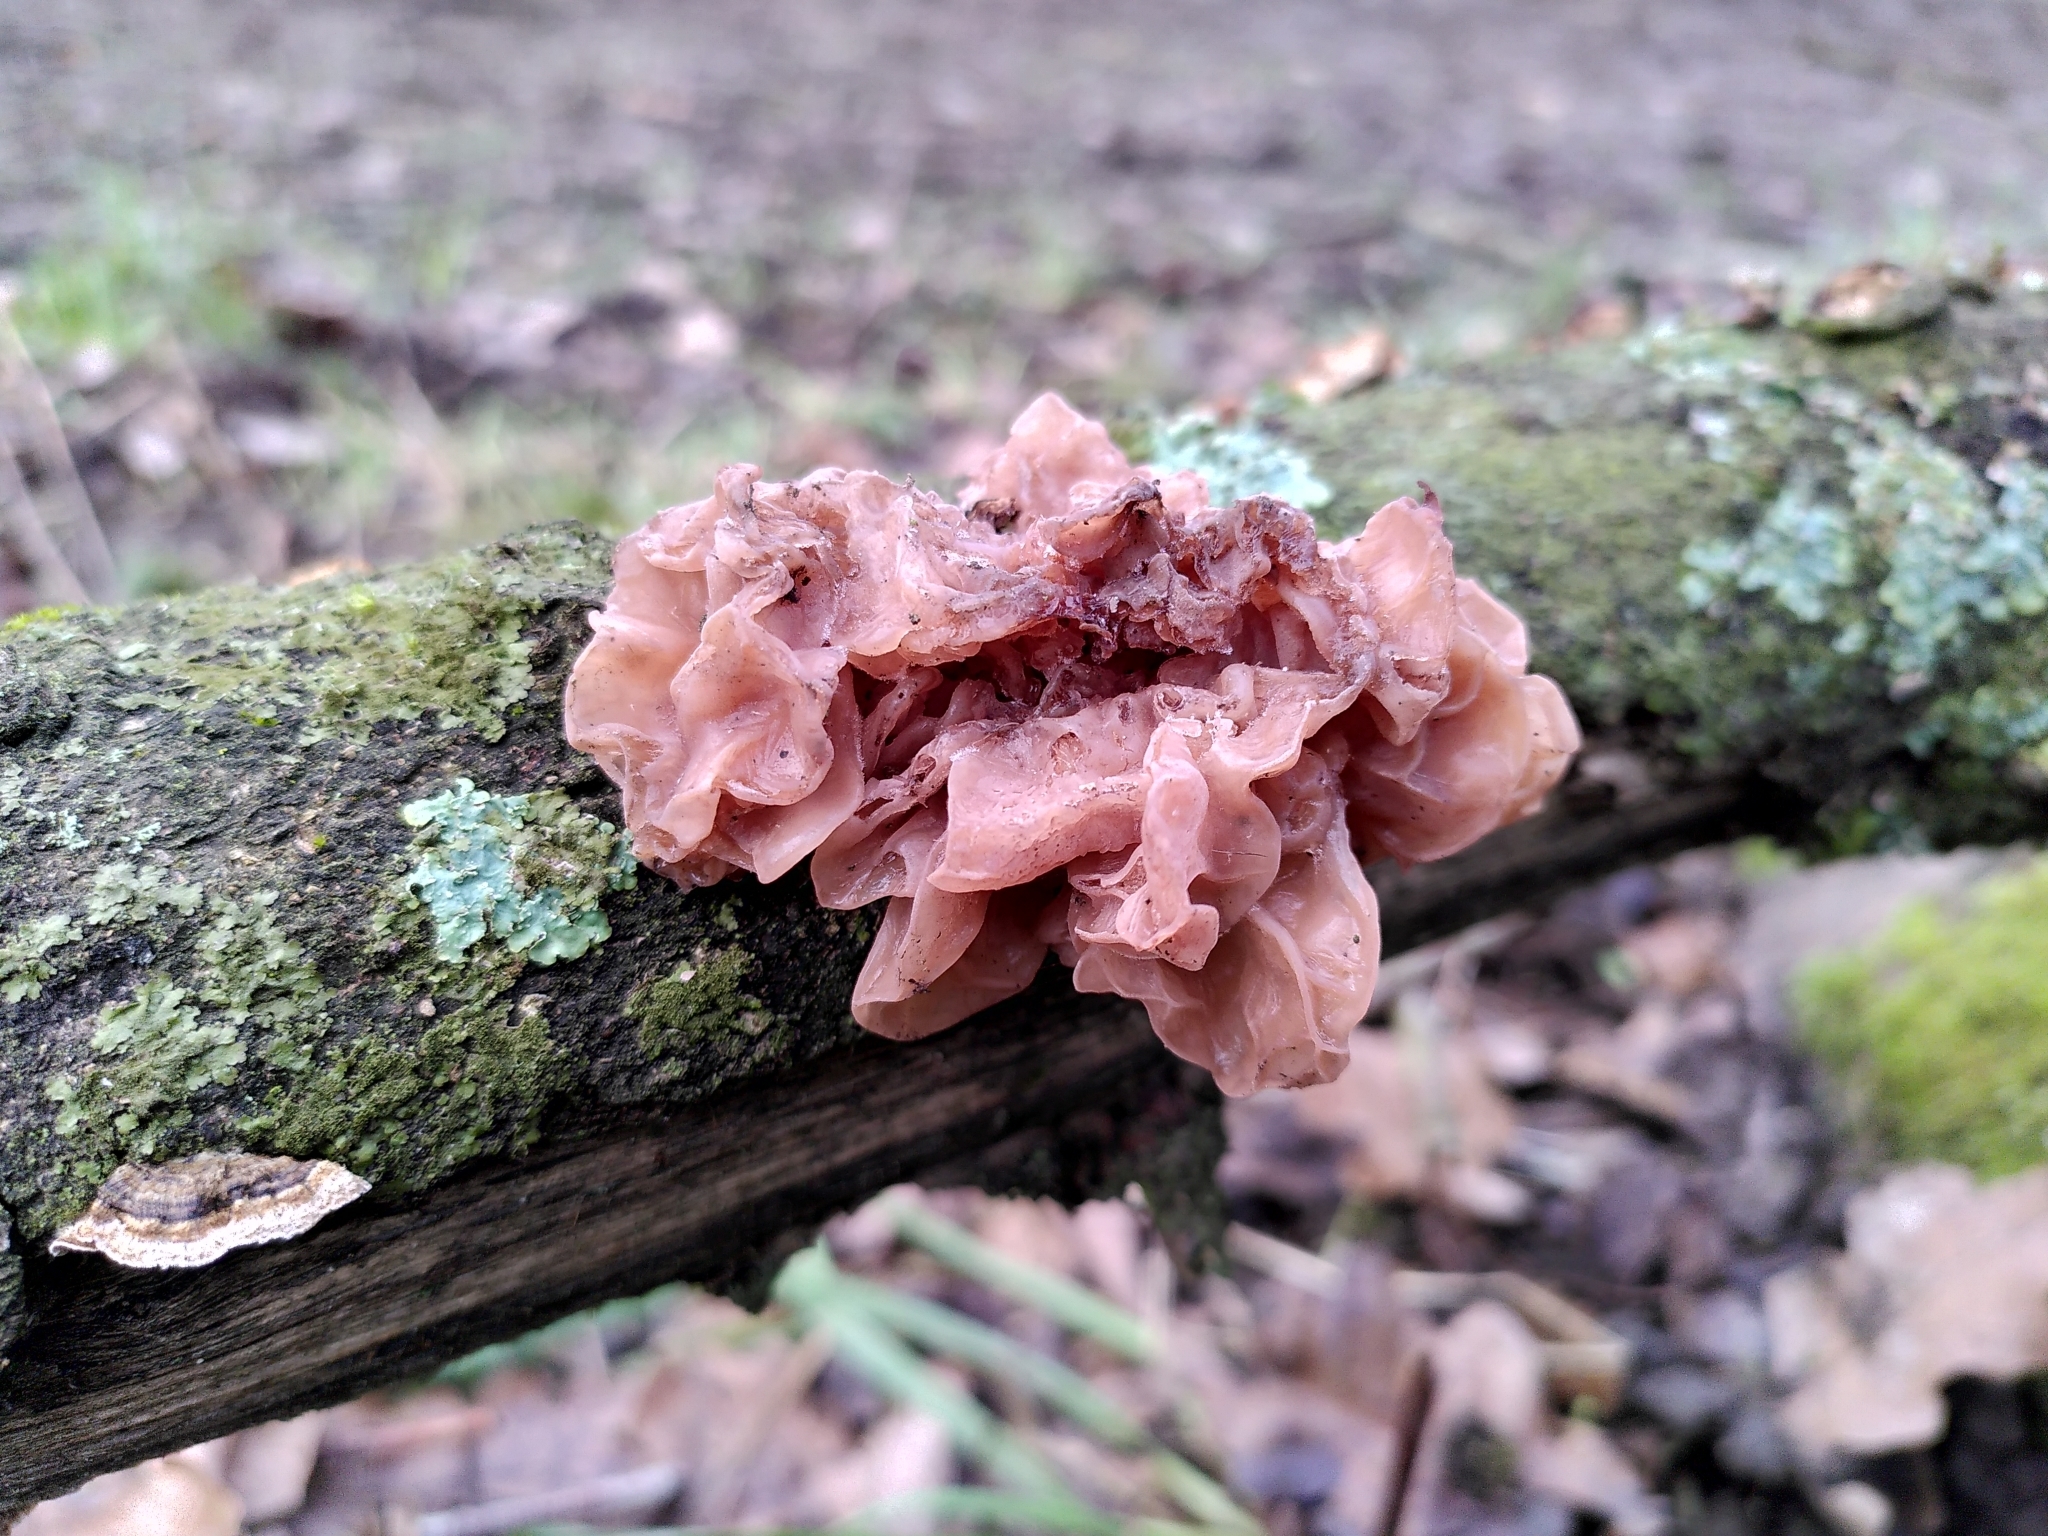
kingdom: Fungi
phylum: Basidiomycota
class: Tremellomycetes
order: Tremellales
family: Tremellaceae
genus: Phaeotremella
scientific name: Phaeotremella frondosa
